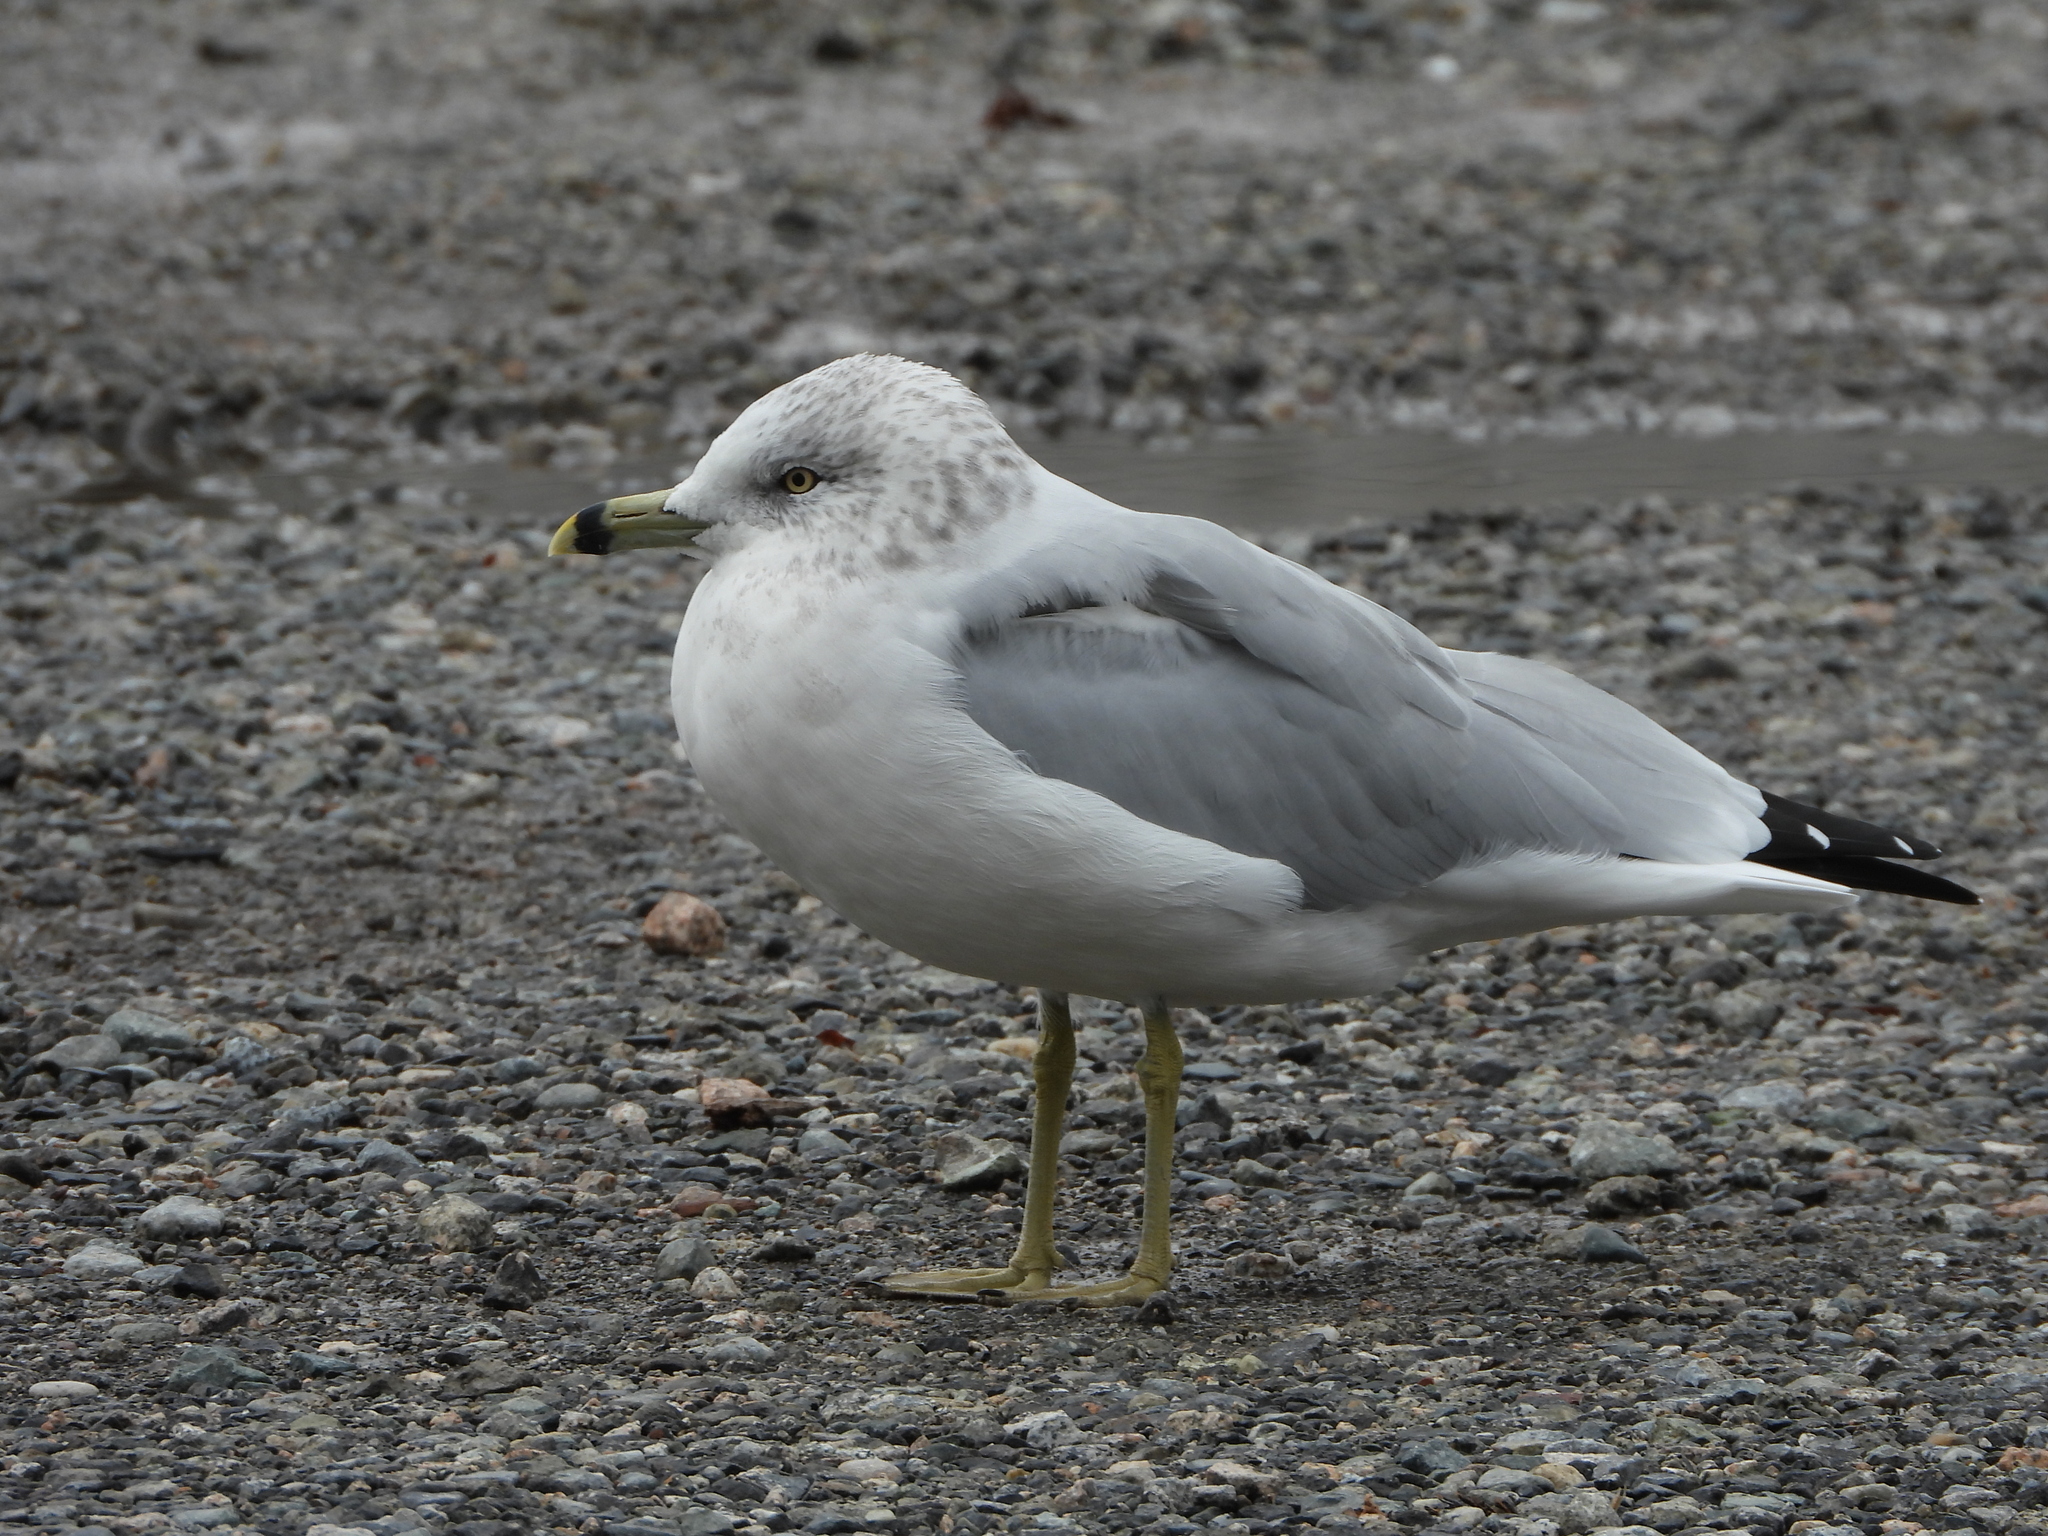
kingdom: Animalia
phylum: Chordata
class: Aves
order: Charadriiformes
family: Laridae
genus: Larus
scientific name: Larus delawarensis
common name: Ring-billed gull
